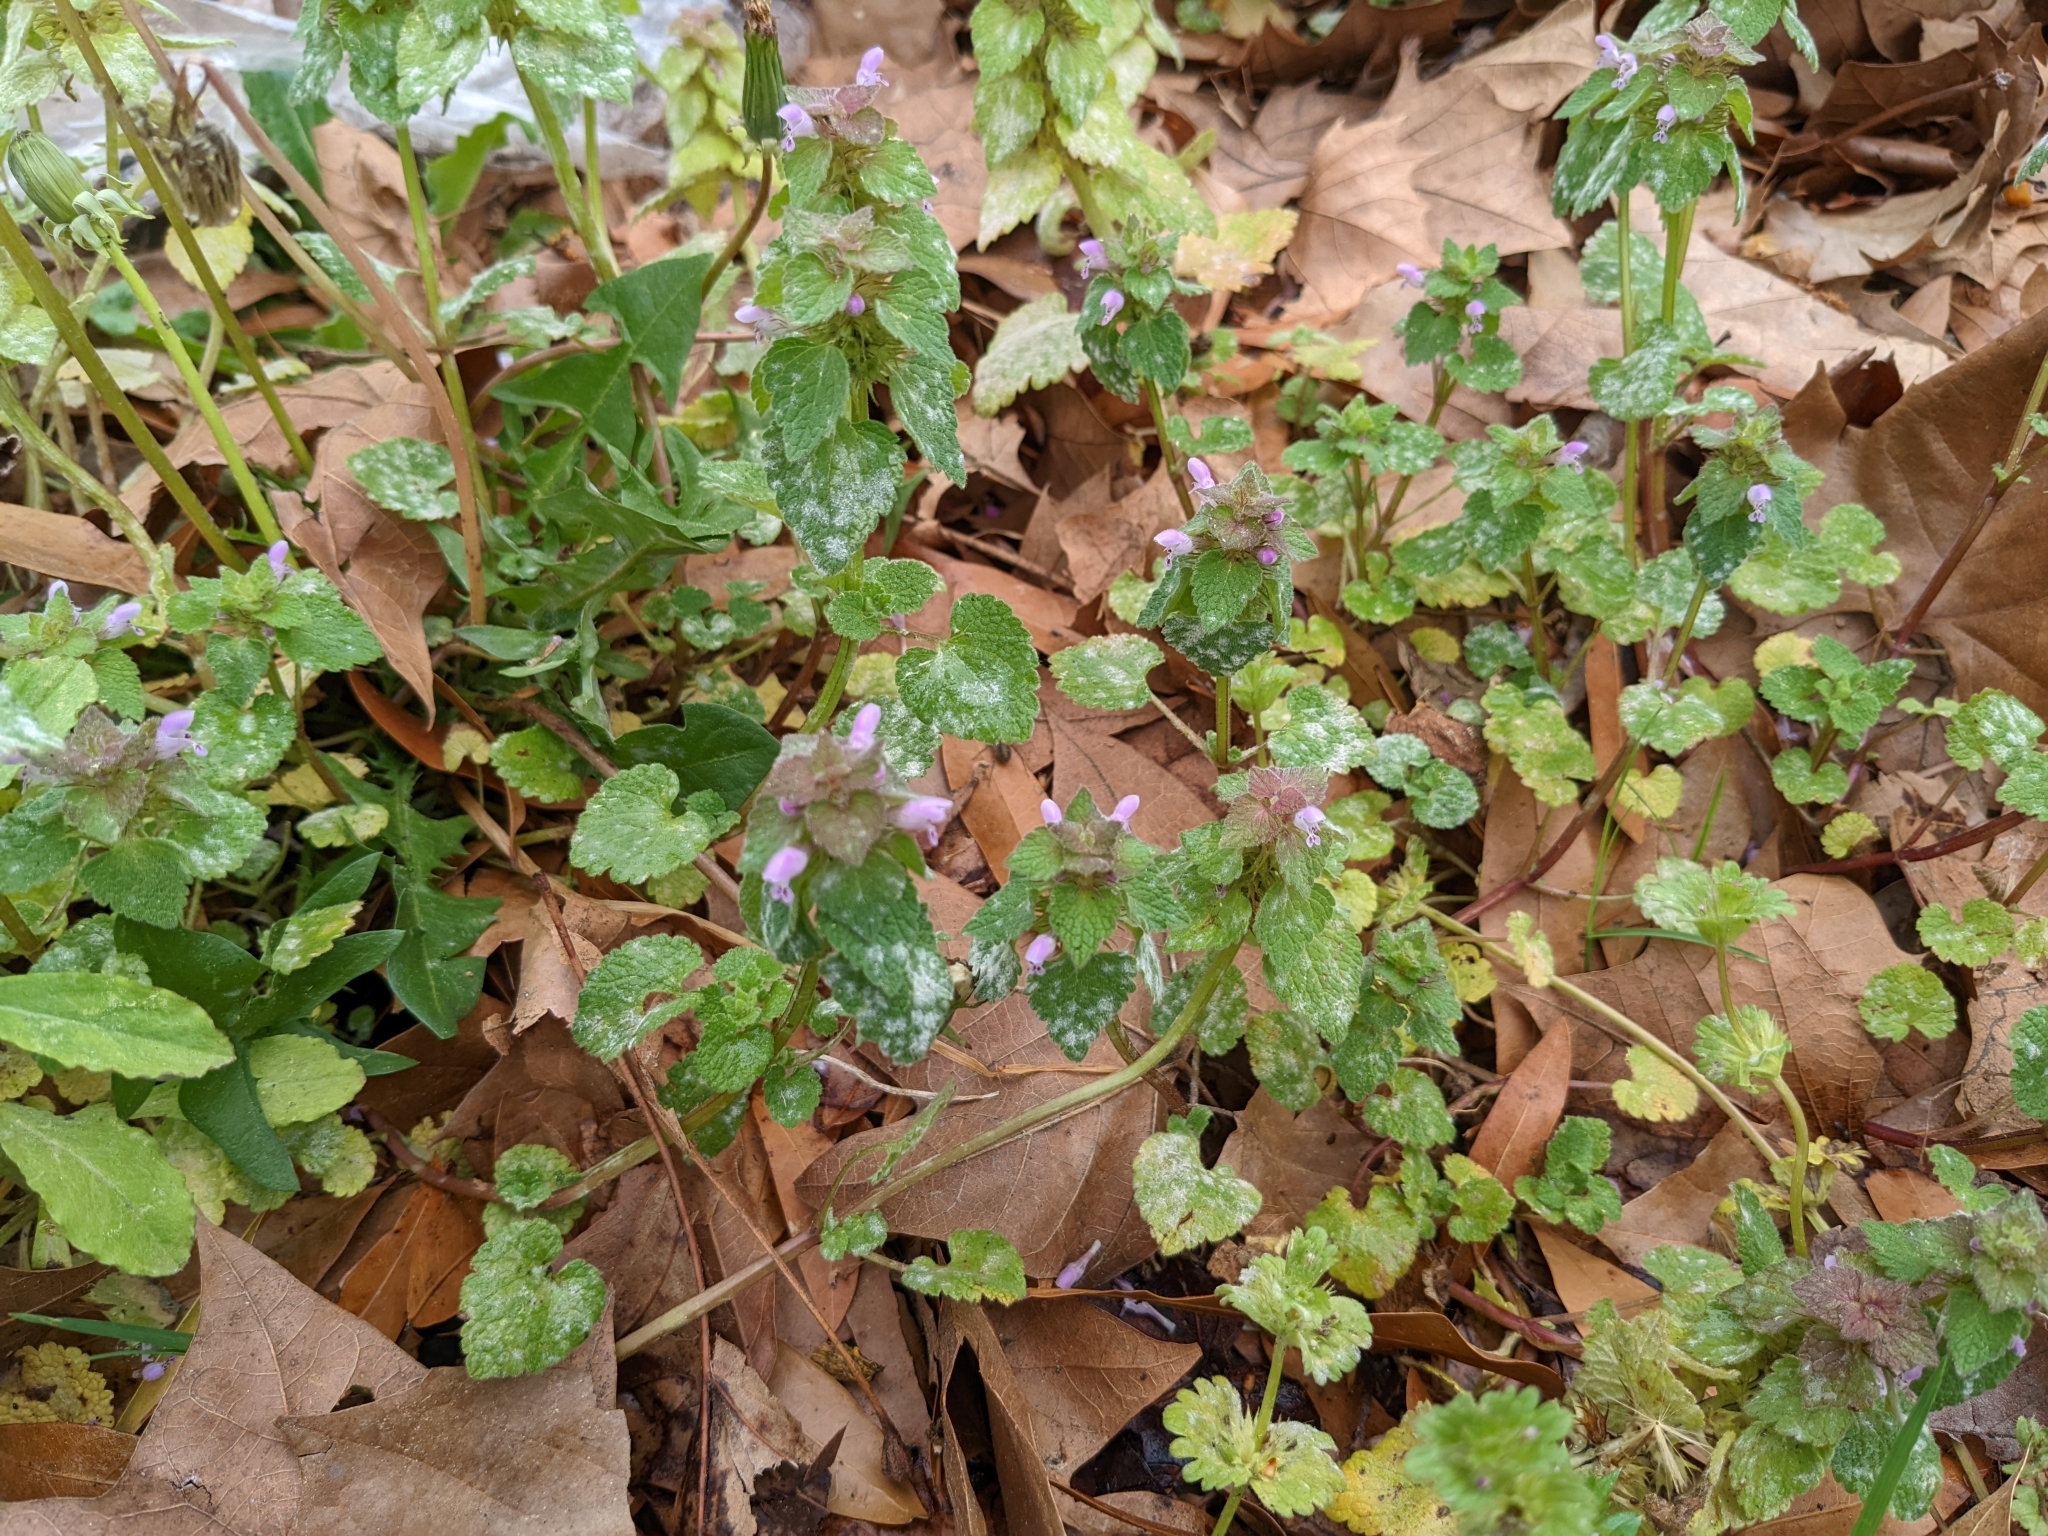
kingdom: Plantae
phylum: Tracheophyta
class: Magnoliopsida
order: Lamiales
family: Lamiaceae
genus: Lamium
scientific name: Lamium purpureum
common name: Red dead-nettle
